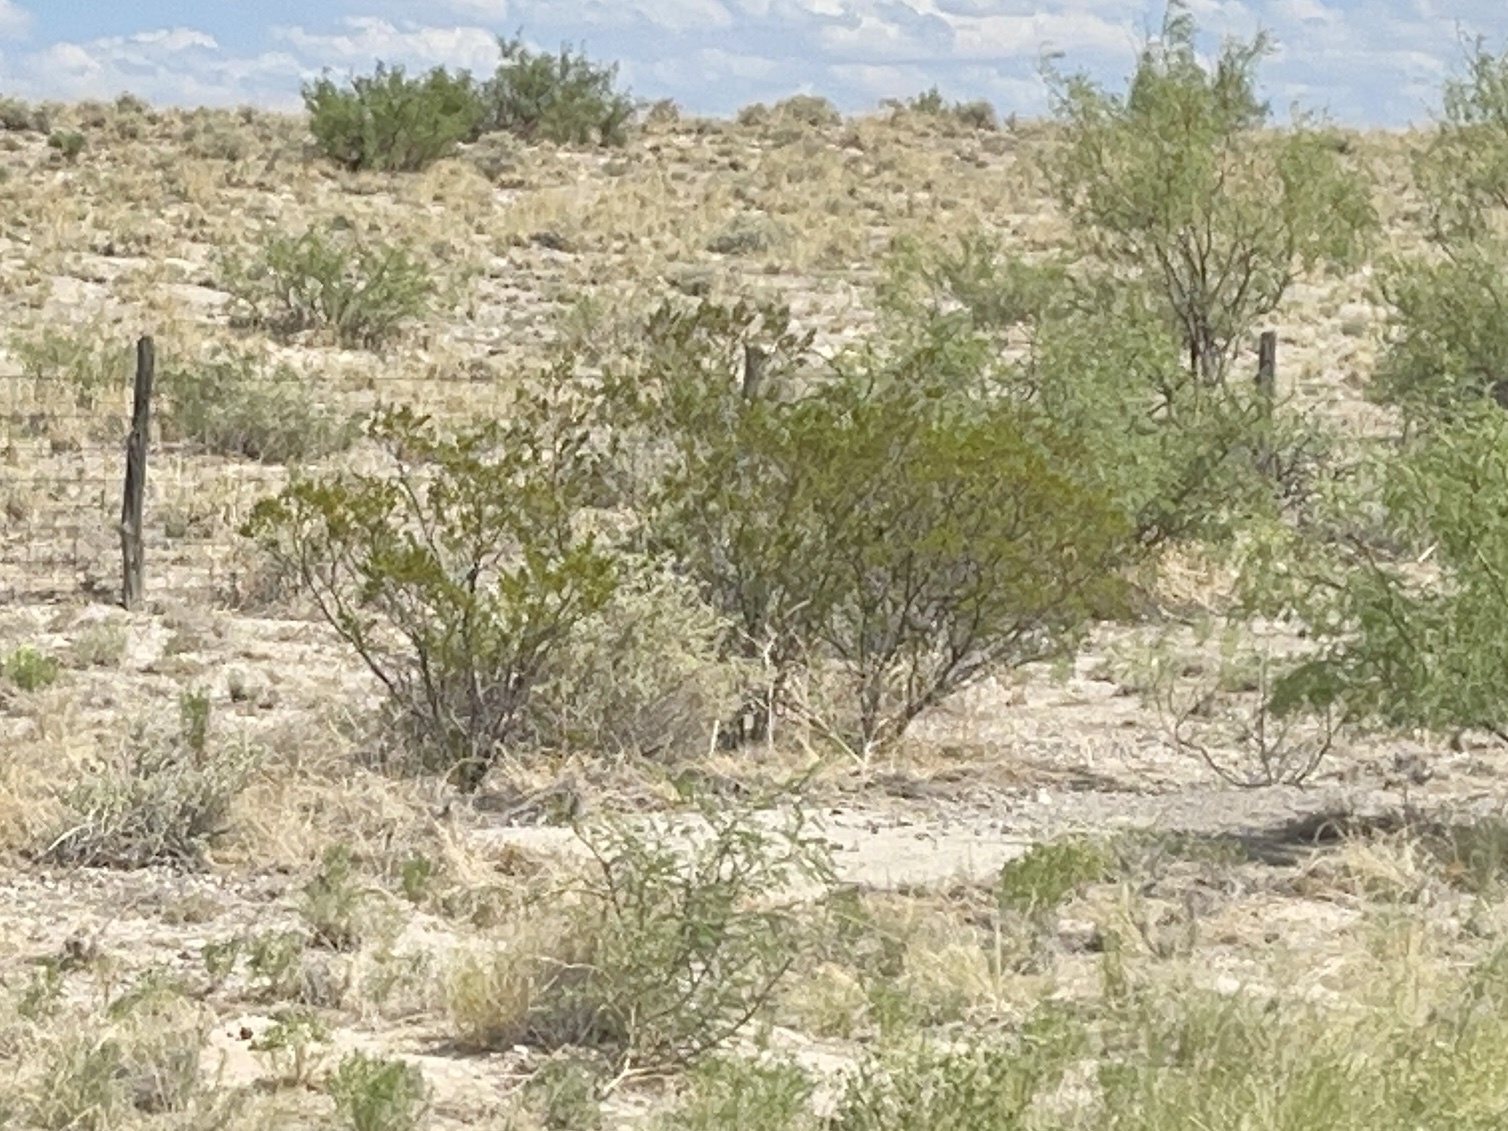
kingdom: Plantae
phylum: Tracheophyta
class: Magnoliopsida
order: Zygophyllales
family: Zygophyllaceae
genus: Larrea
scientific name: Larrea tridentata
